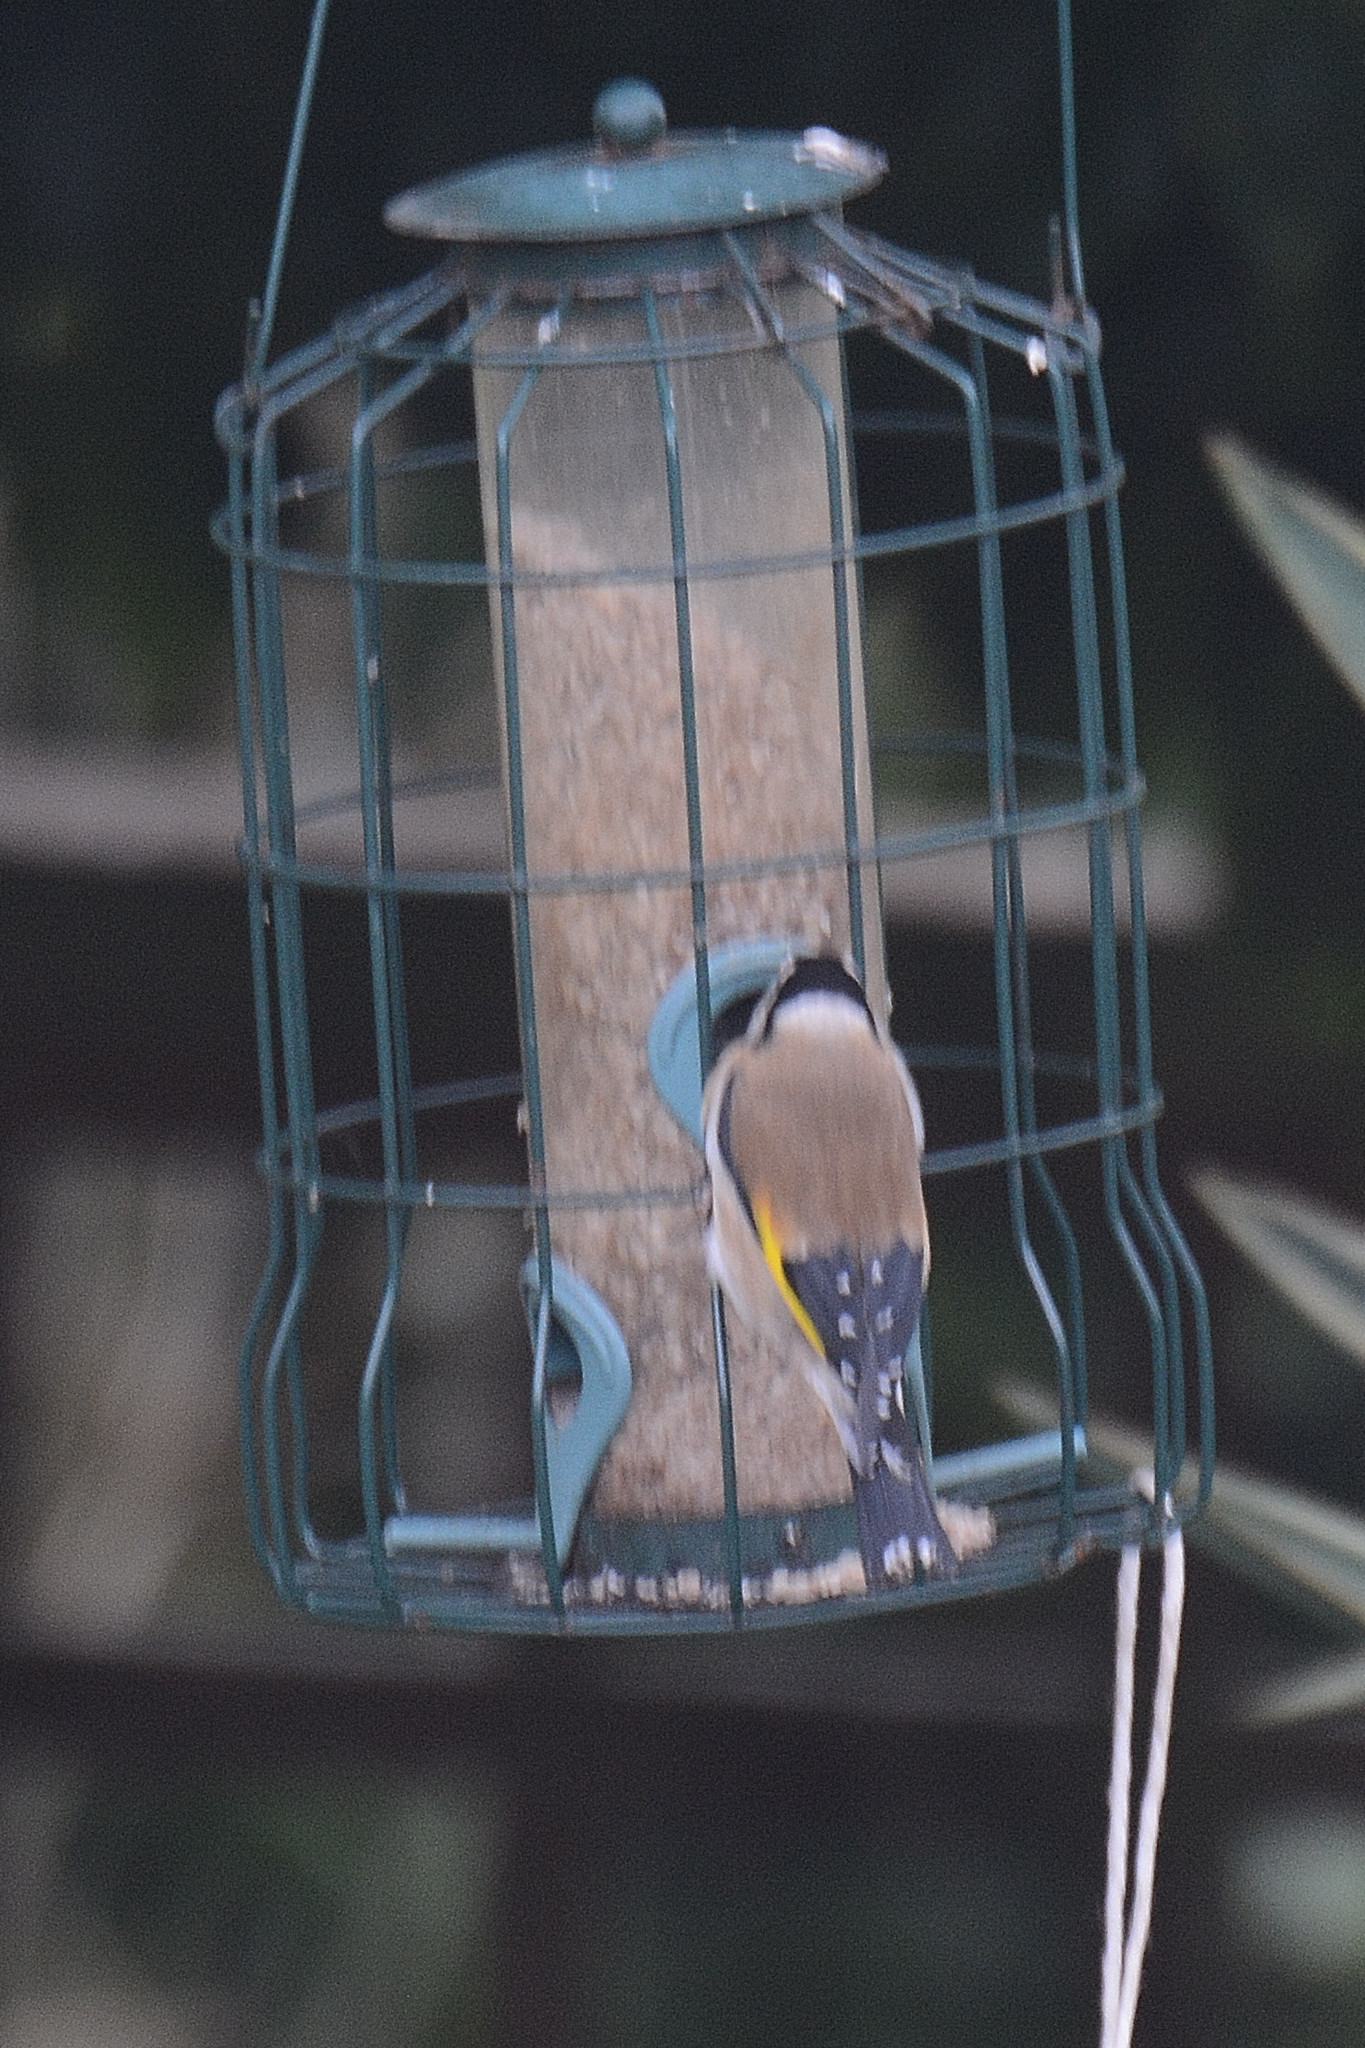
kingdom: Animalia
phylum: Chordata
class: Aves
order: Passeriformes
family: Fringillidae
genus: Carduelis
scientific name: Carduelis carduelis
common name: European goldfinch
